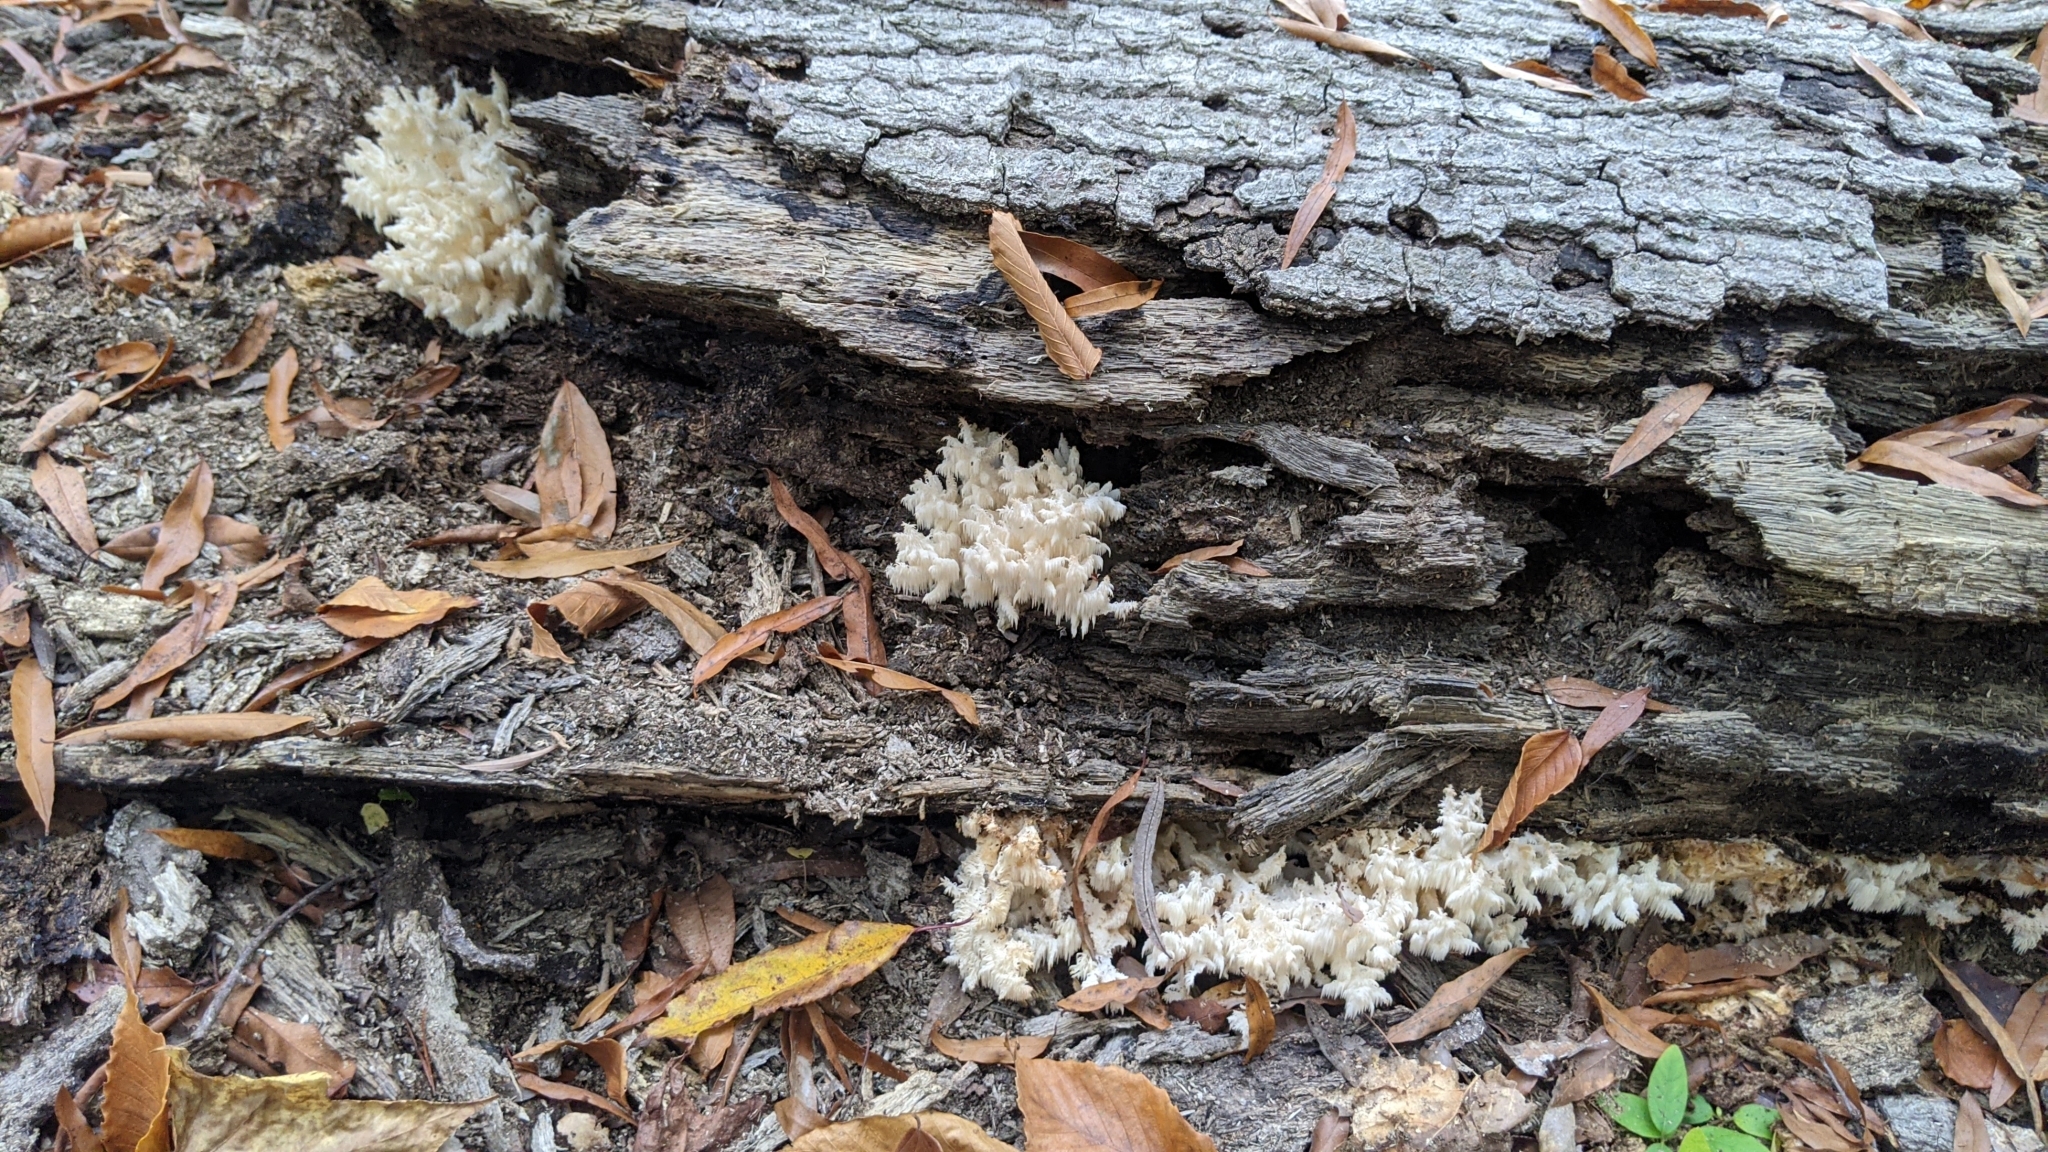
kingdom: Fungi
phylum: Basidiomycota
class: Agaricomycetes
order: Russulales
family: Hericiaceae
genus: Hericium
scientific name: Hericium coralloides
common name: Coral tooth
